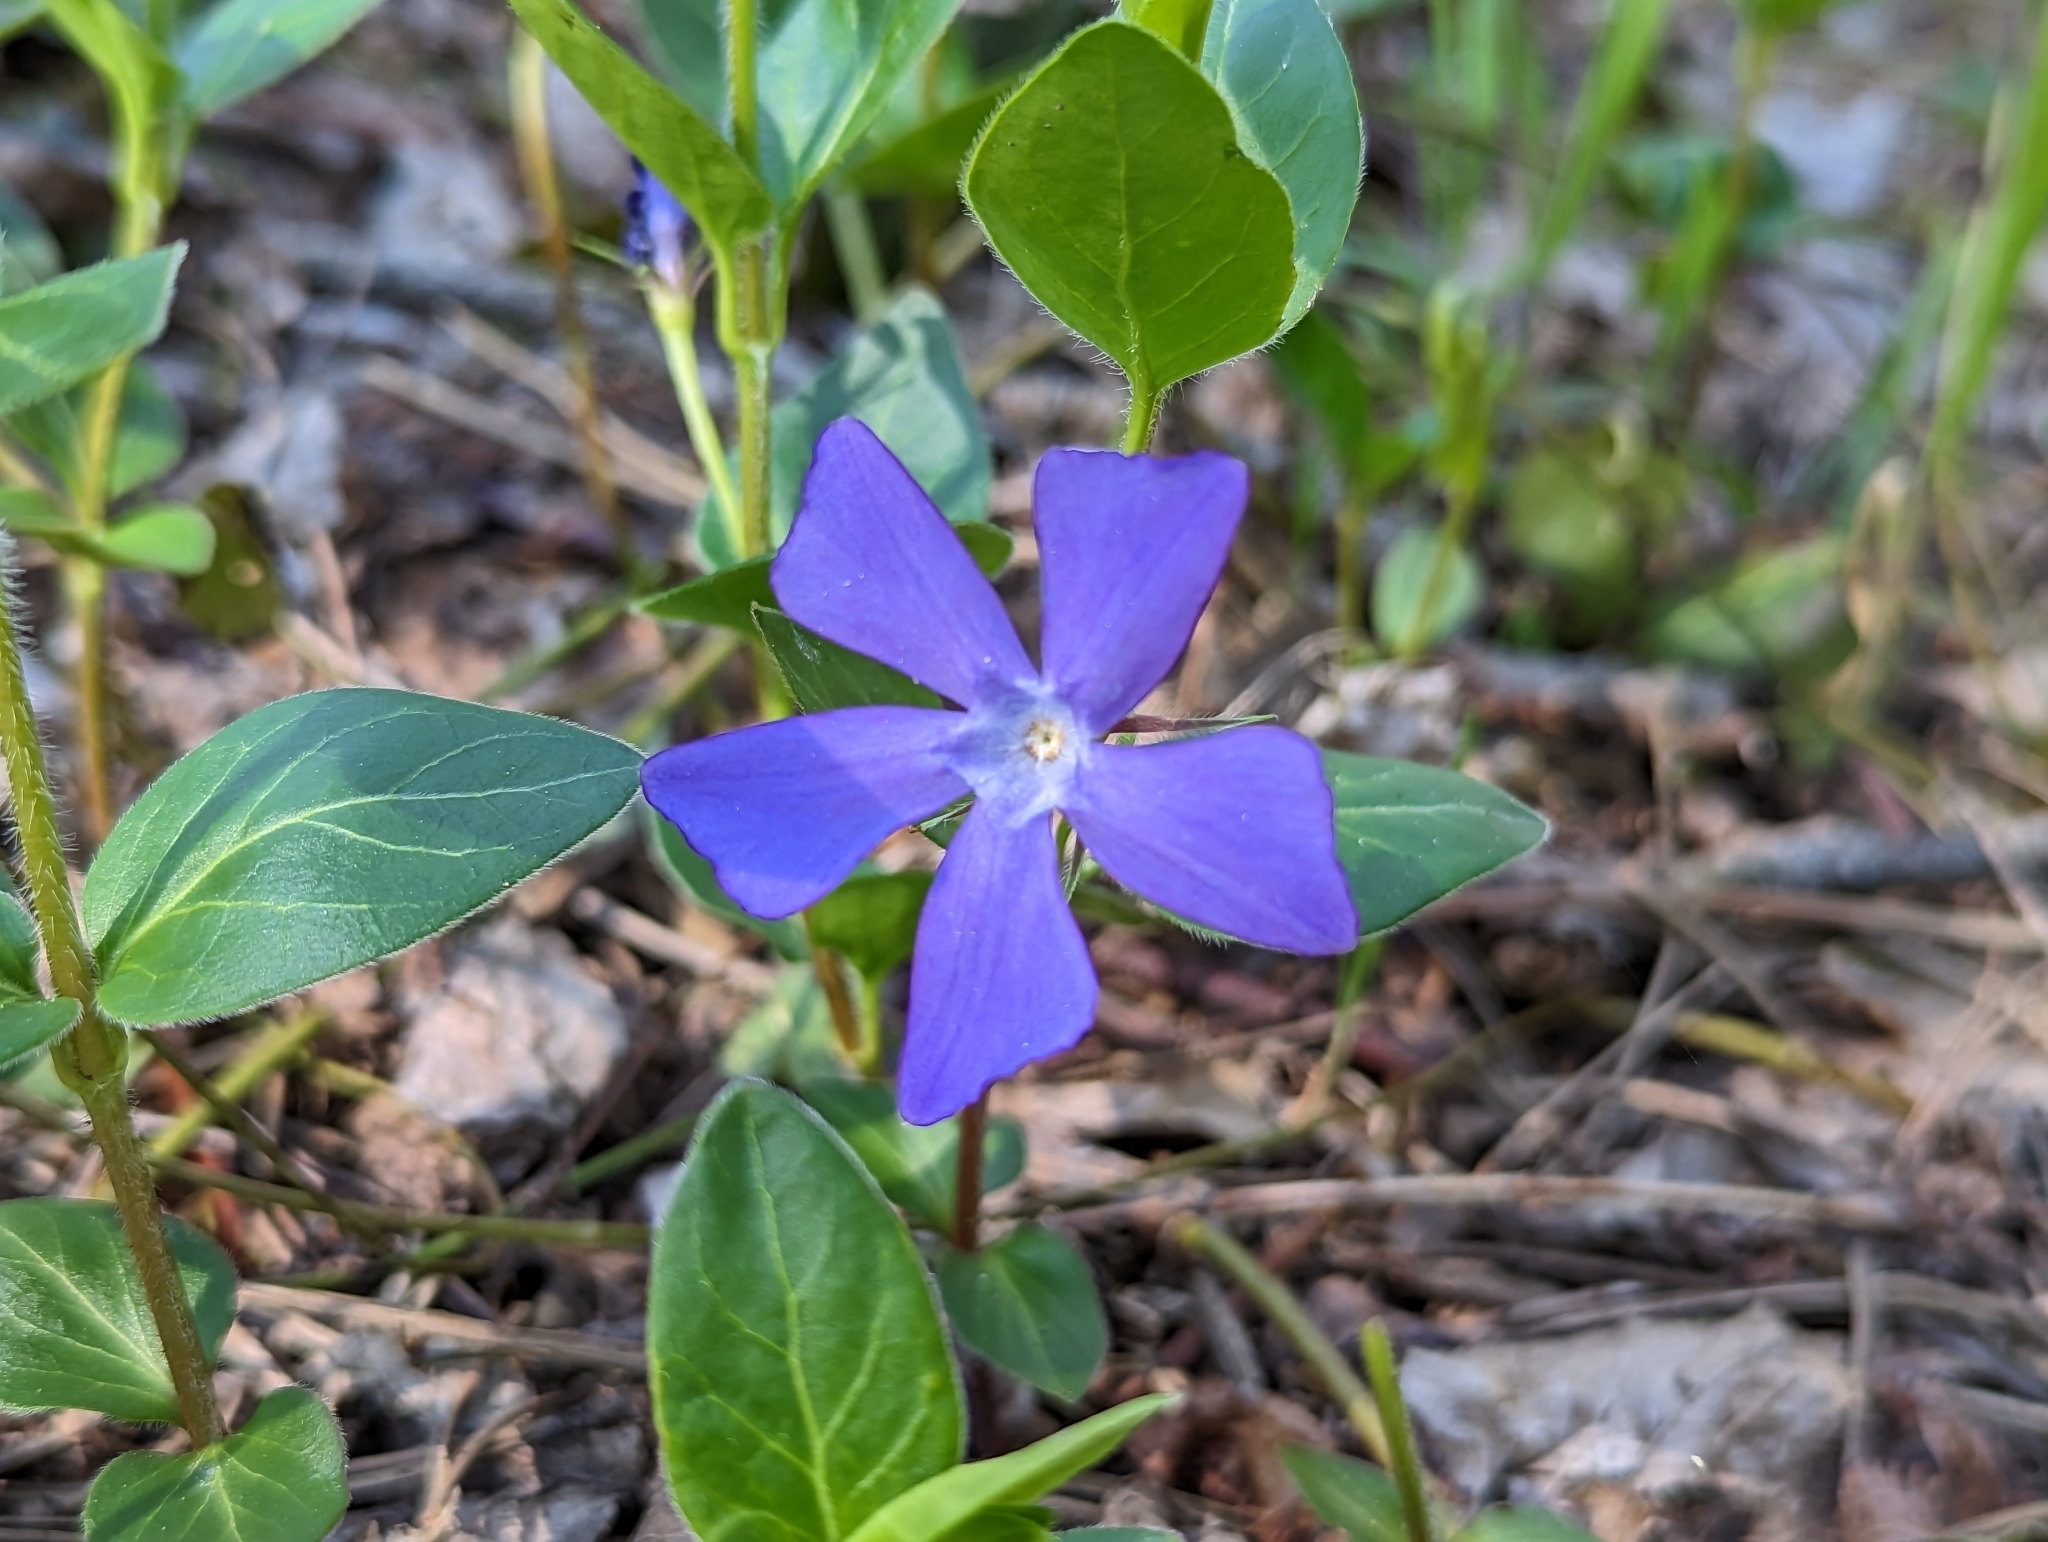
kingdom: Plantae
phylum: Tracheophyta
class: Magnoliopsida
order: Gentianales
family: Apocynaceae
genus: Vinca
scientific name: Vinca major
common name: Greater periwinkle
